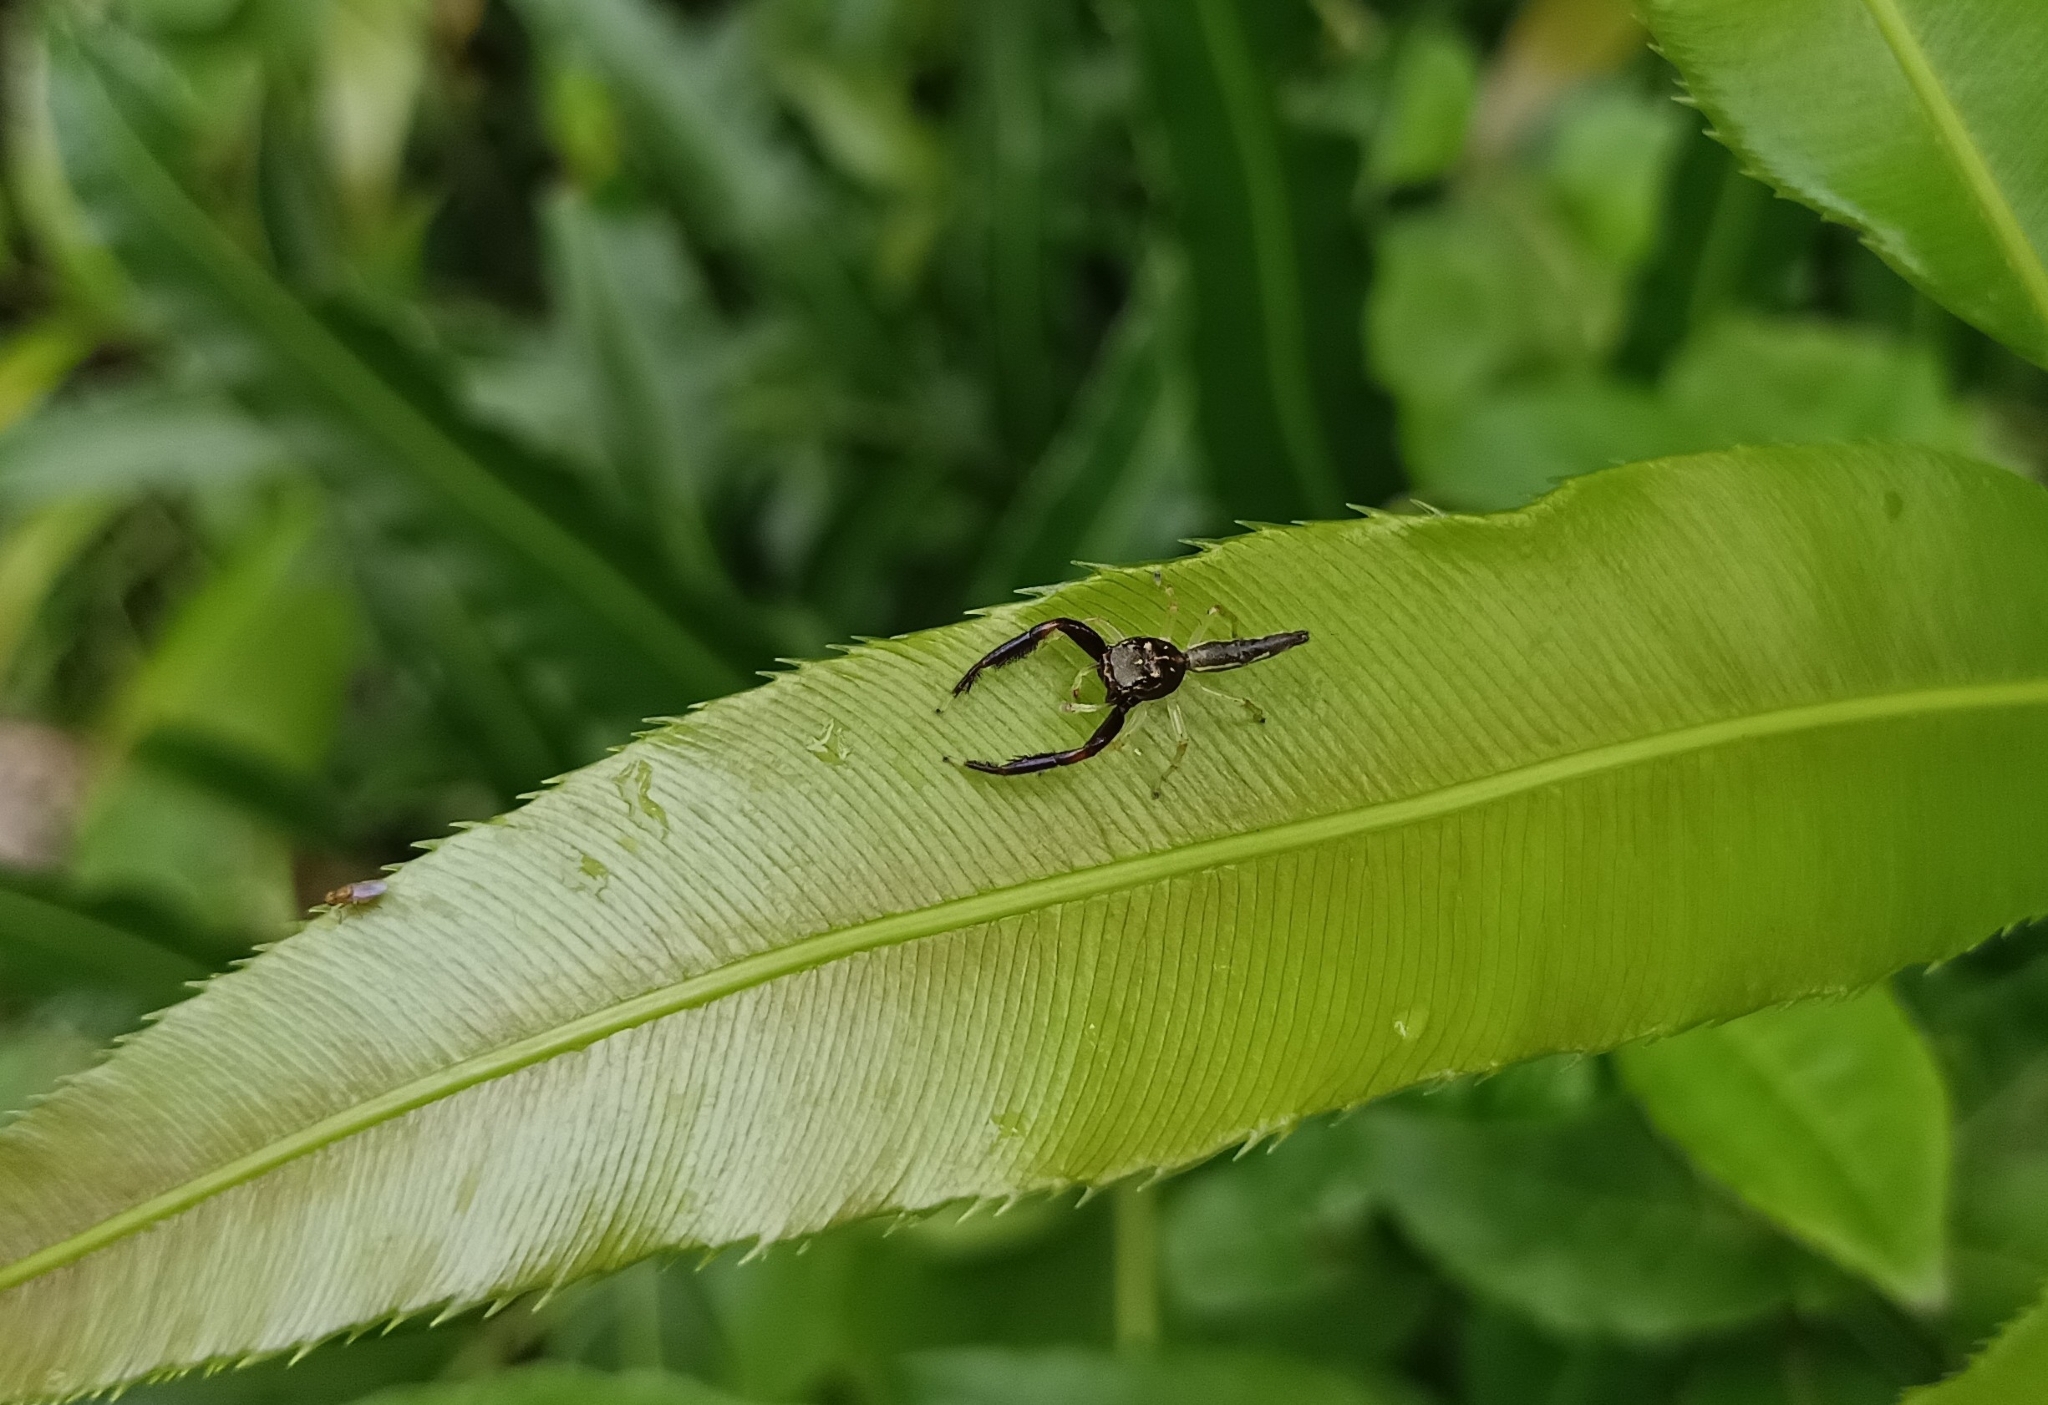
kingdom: Animalia
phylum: Arthropoda
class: Arachnida
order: Araneae
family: Salticidae
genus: Indopadilla
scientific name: Indopadilla insularis
